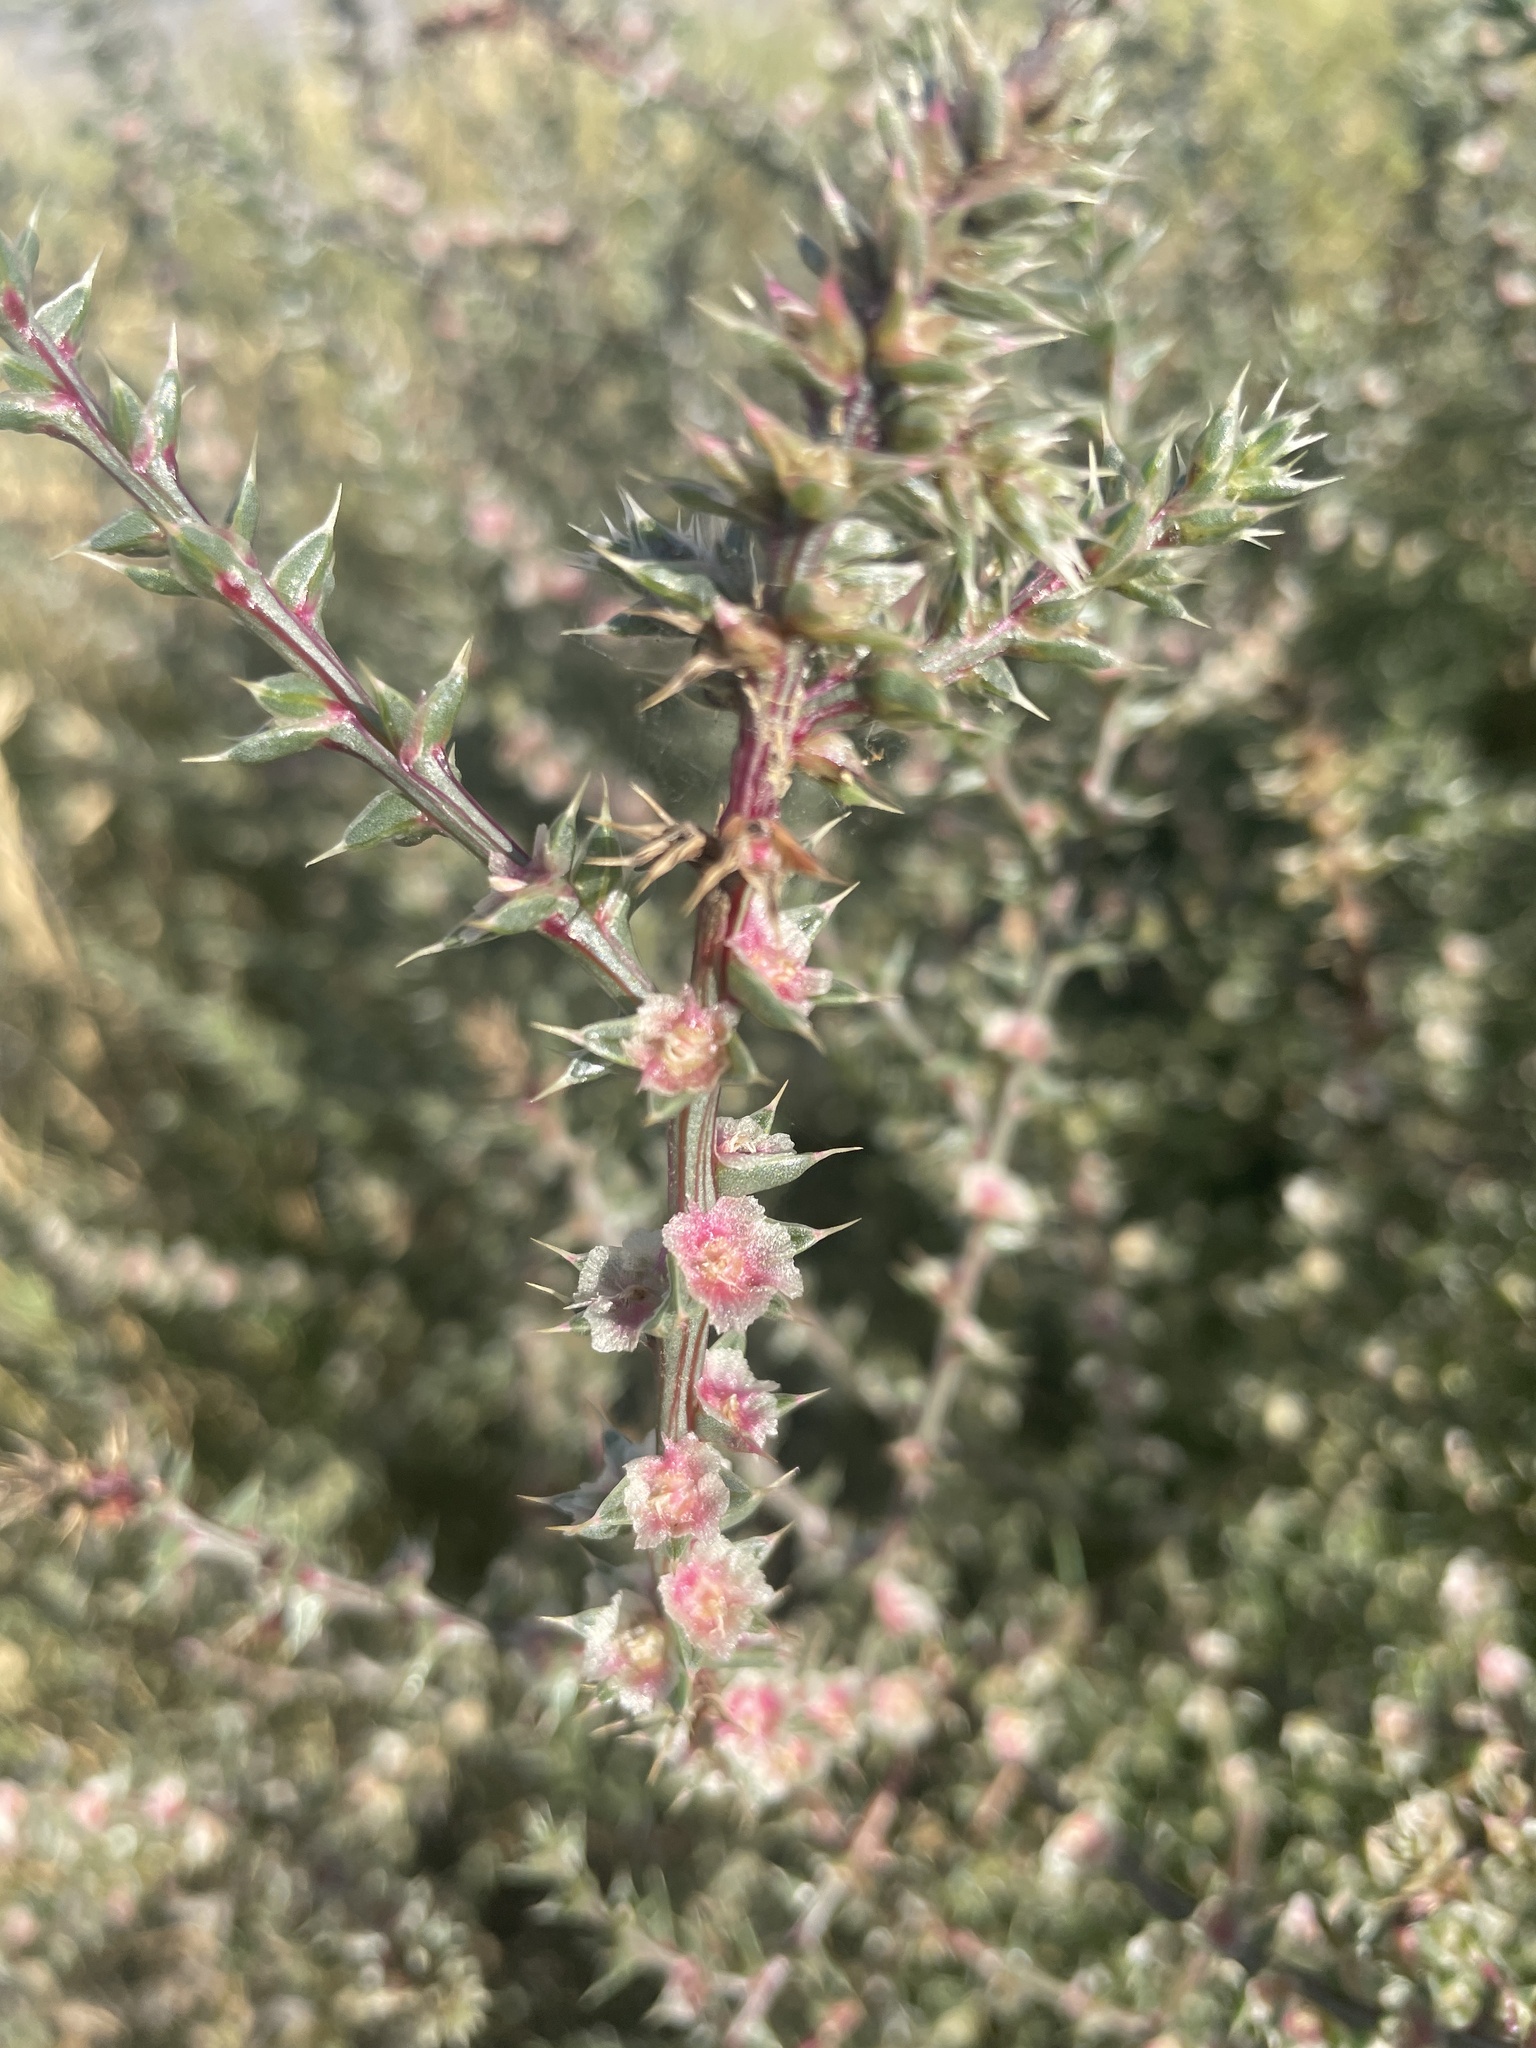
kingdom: Plantae
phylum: Tracheophyta
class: Magnoliopsida
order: Caryophyllales
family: Amaranthaceae
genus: Salsola
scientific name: Salsola tragus
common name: Prickly russian thistle
